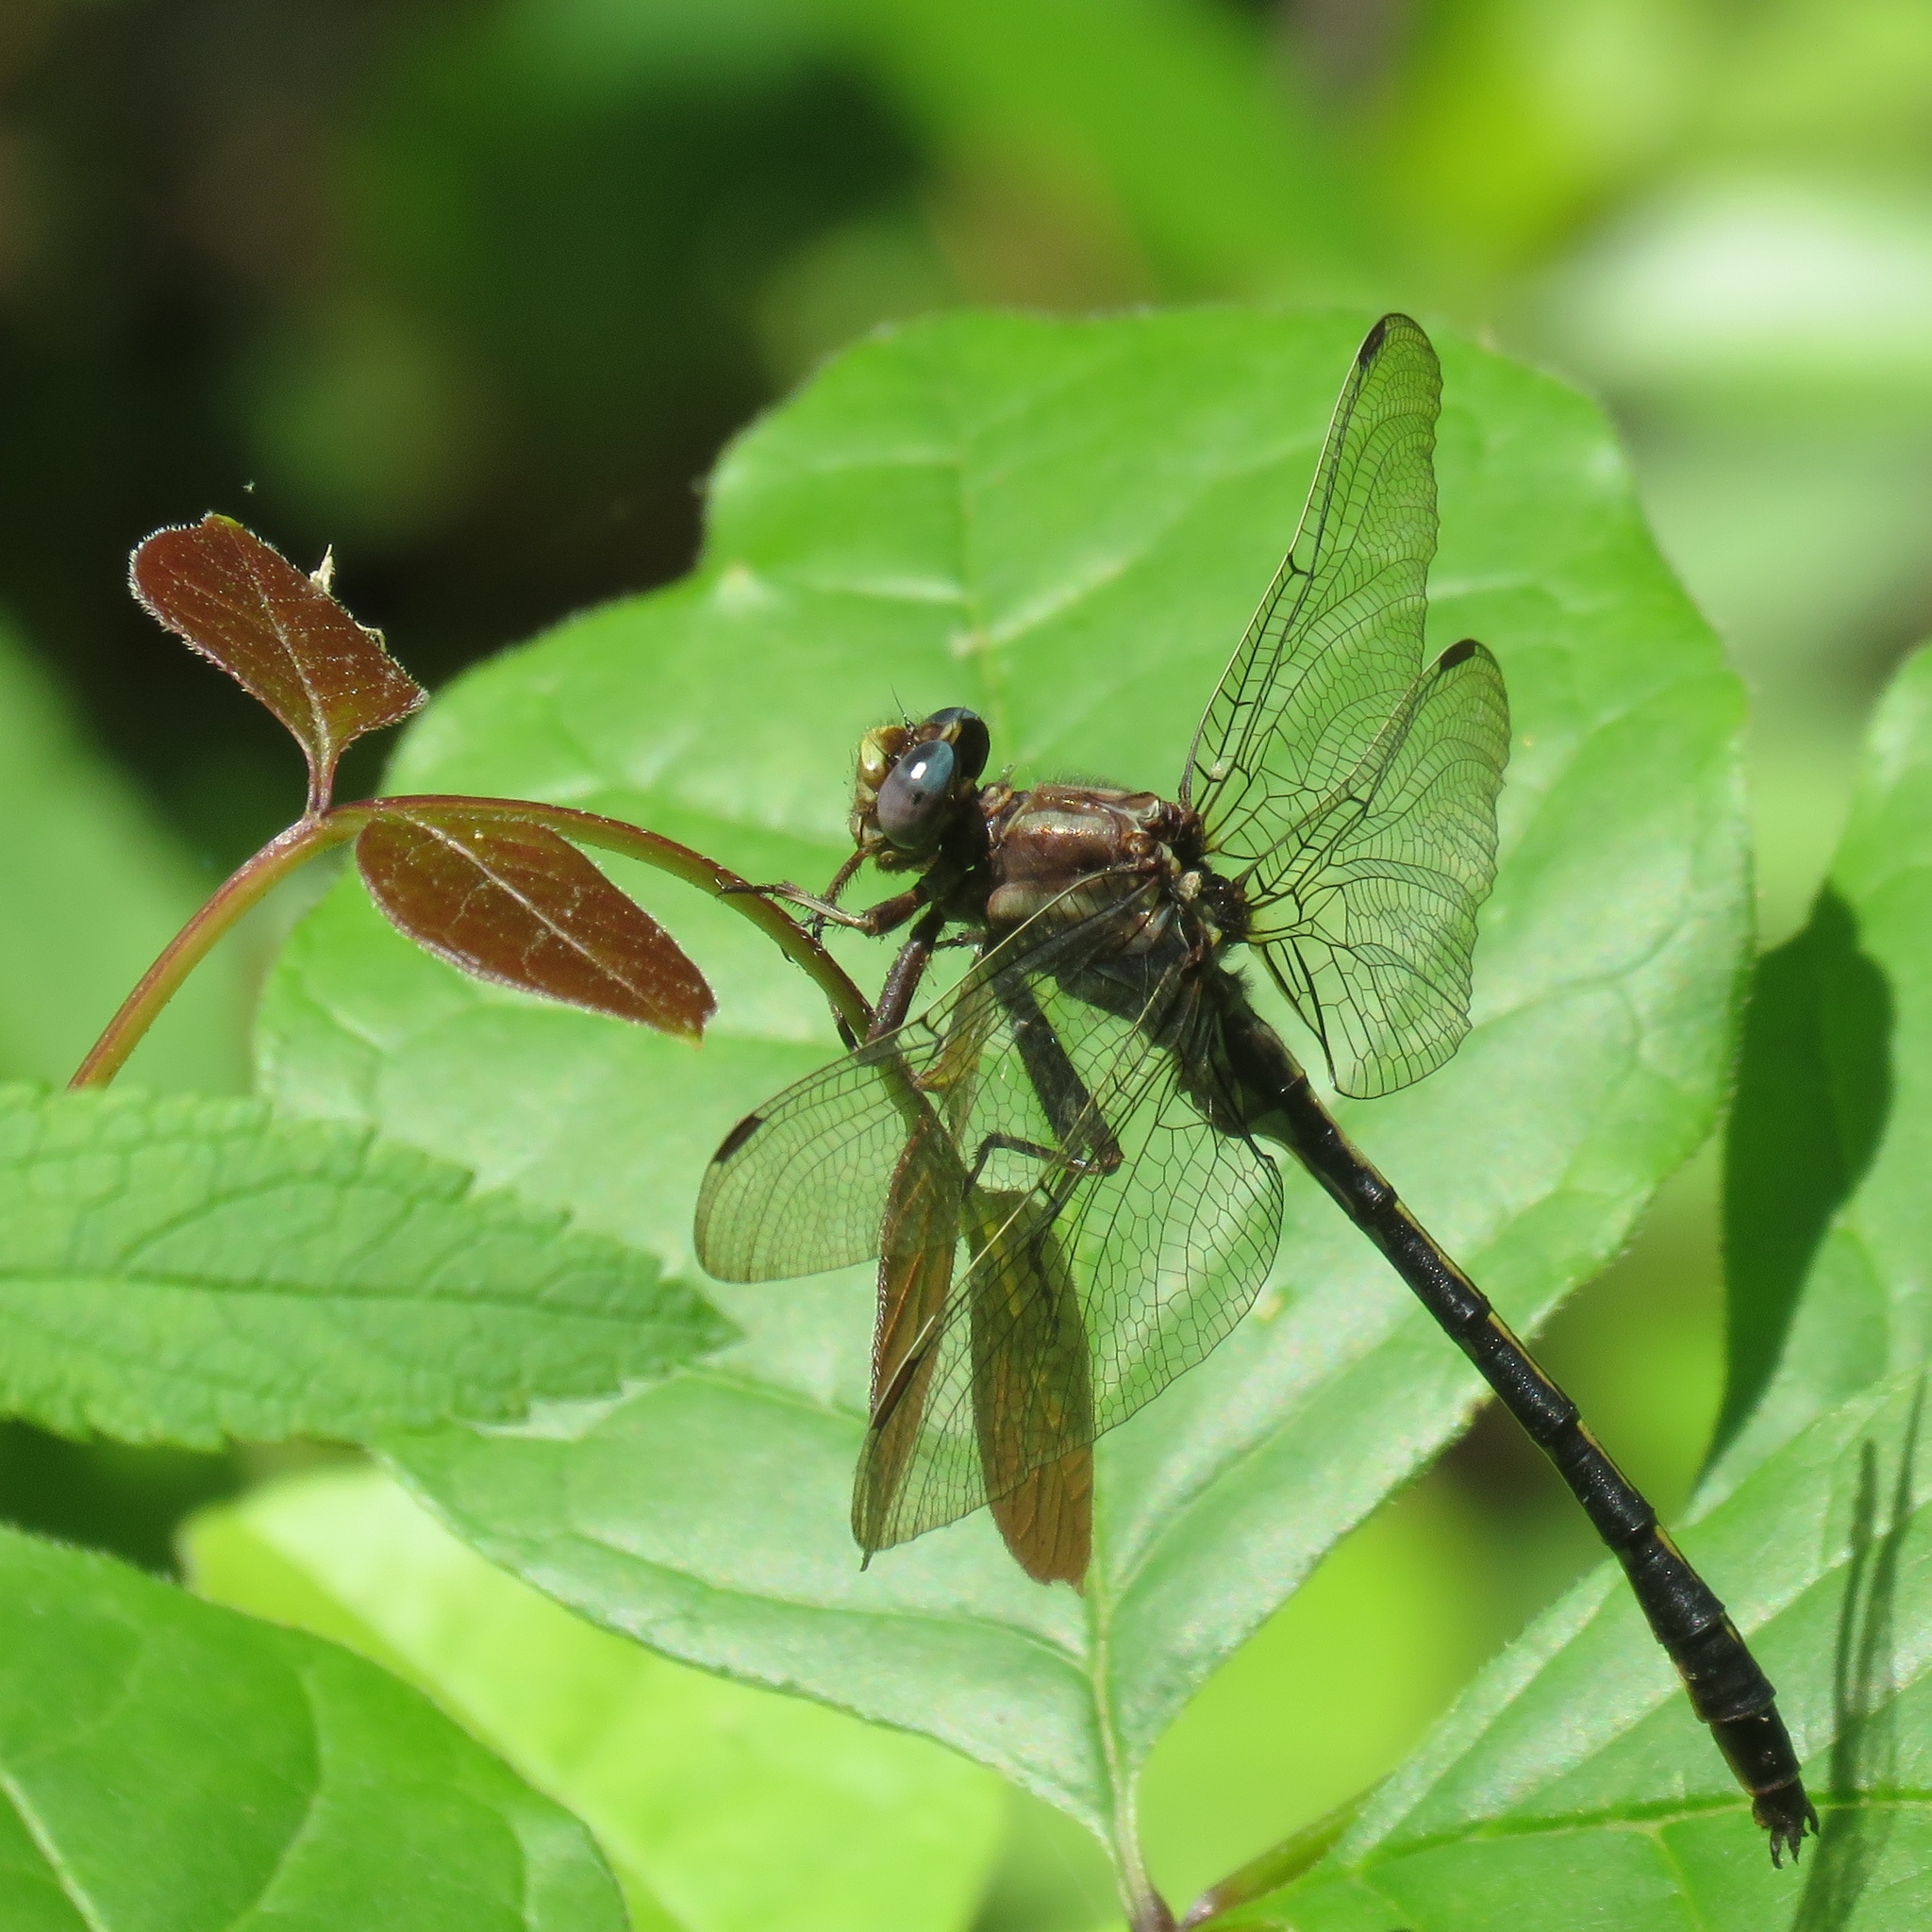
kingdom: Animalia
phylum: Arthropoda
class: Insecta
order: Odonata
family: Gomphidae
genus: Phanogomphus
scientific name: Phanogomphus lividus
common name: Ashy clubtail
